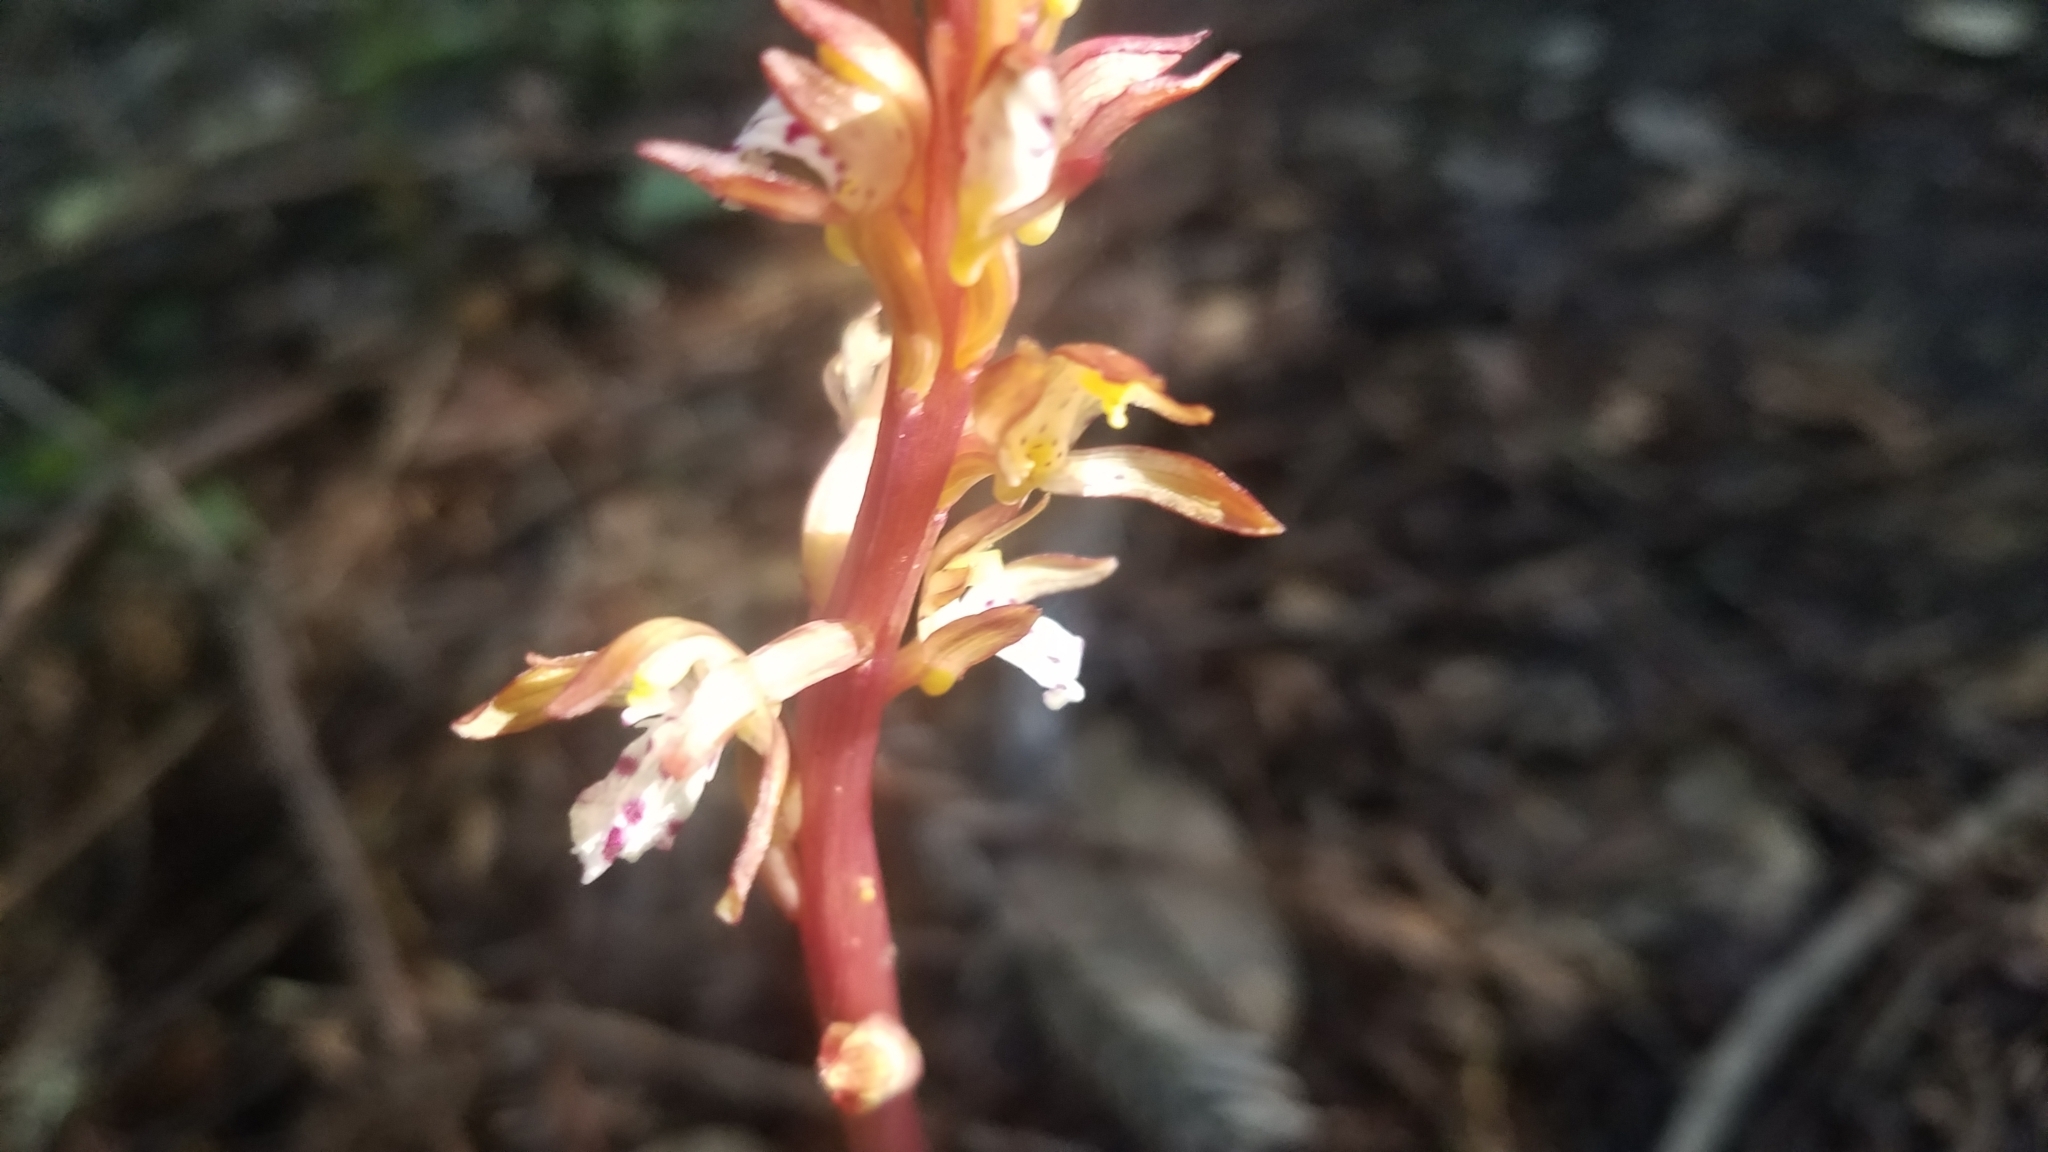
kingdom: Plantae
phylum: Tracheophyta
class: Liliopsida
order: Asparagales
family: Orchidaceae
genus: Corallorhiza
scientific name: Corallorhiza maculata
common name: Spotted coralroot
